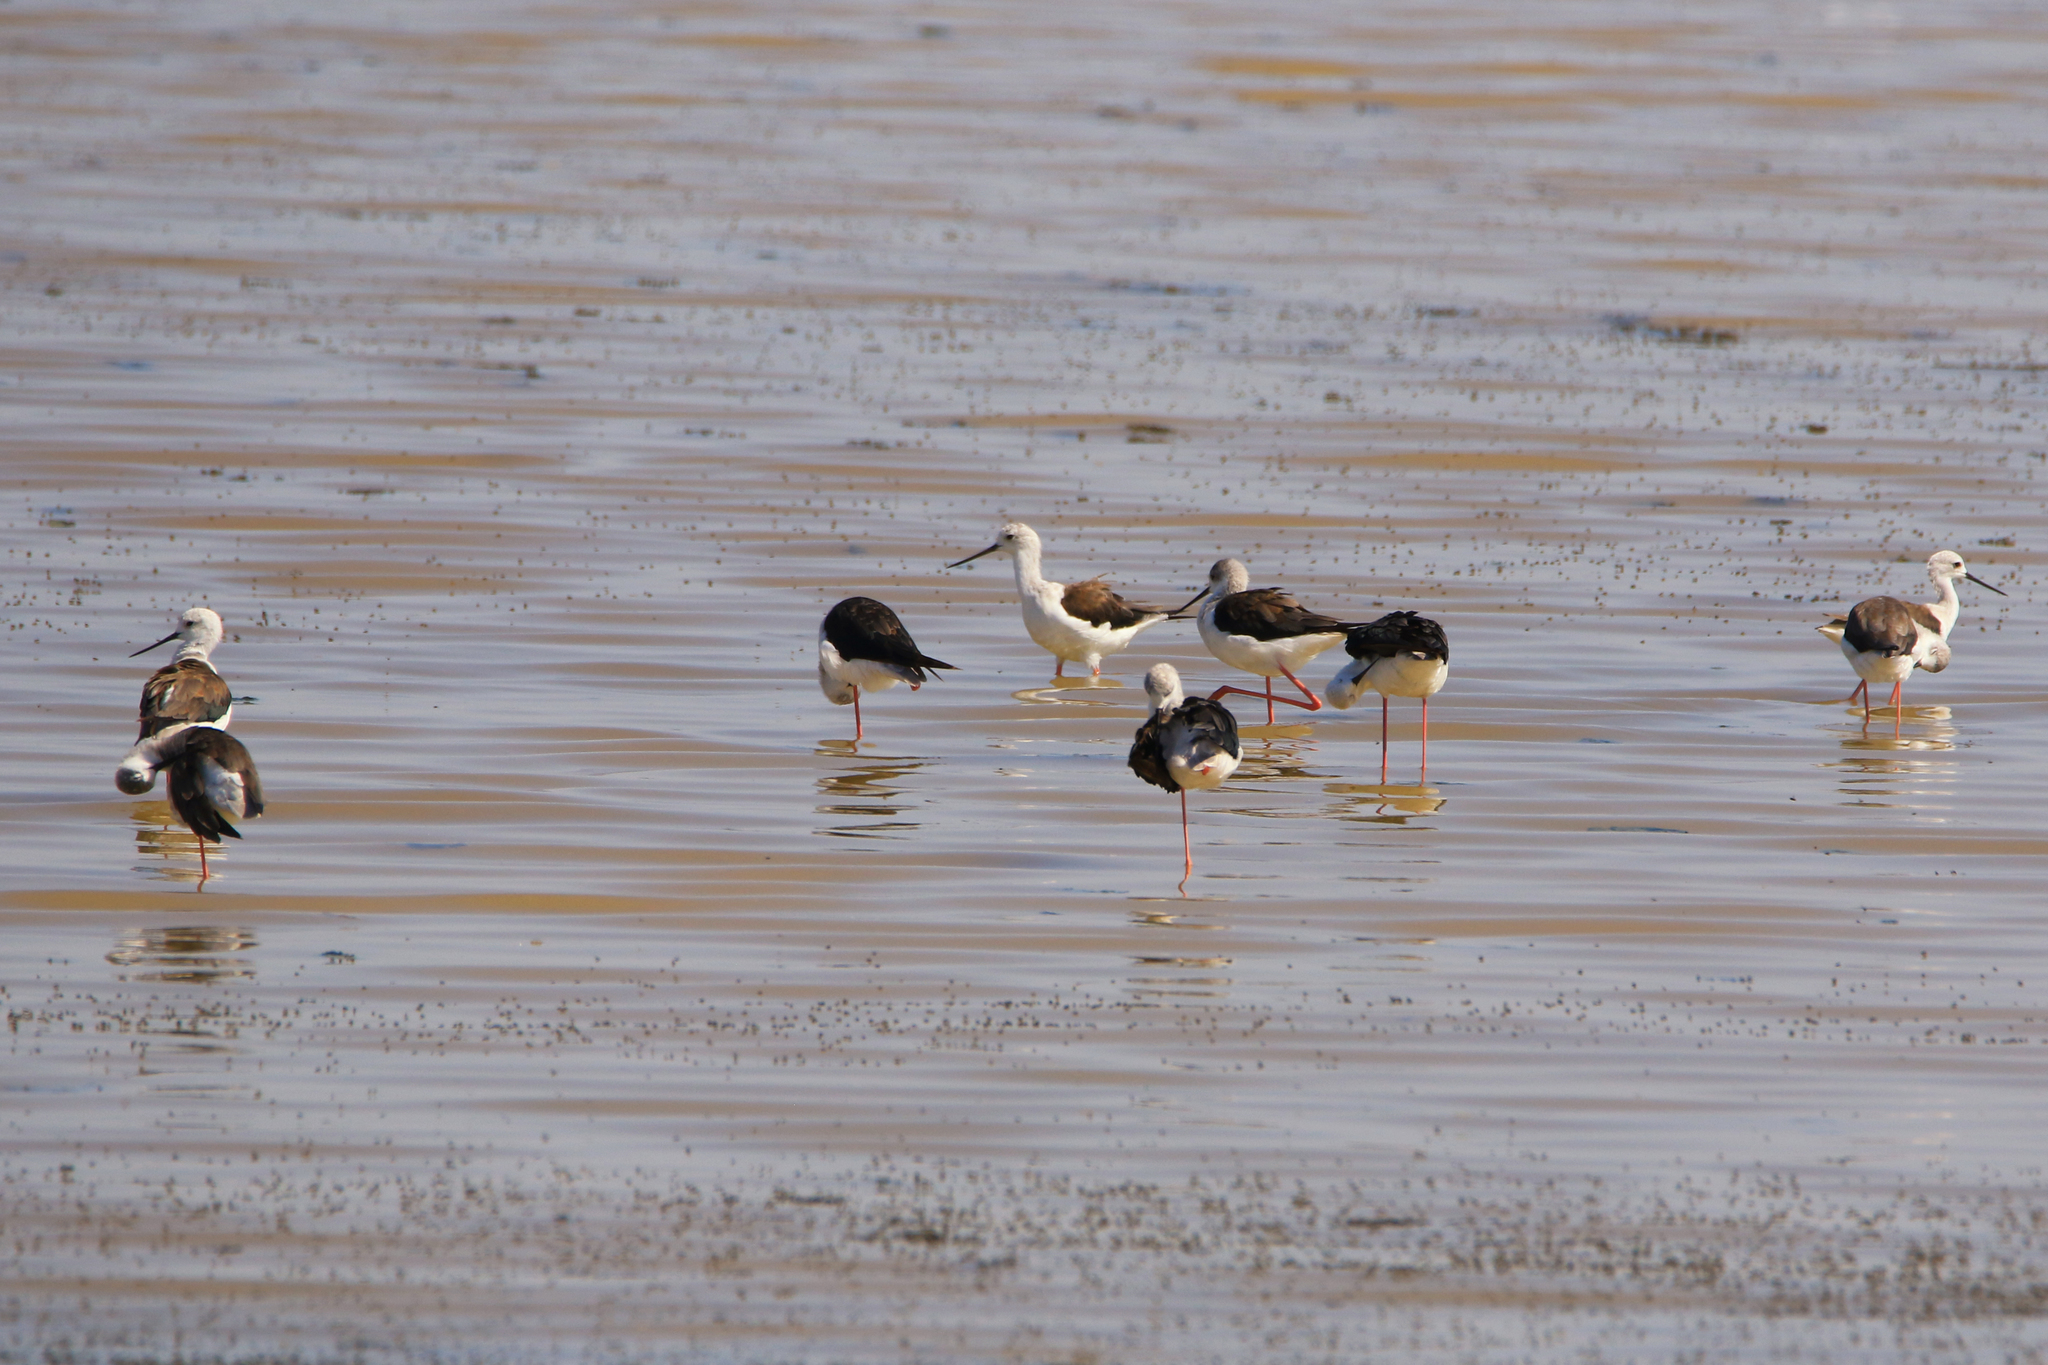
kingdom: Animalia
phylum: Chordata
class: Aves
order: Charadriiformes
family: Recurvirostridae
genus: Himantopus
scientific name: Himantopus himantopus
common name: Black-winged stilt
